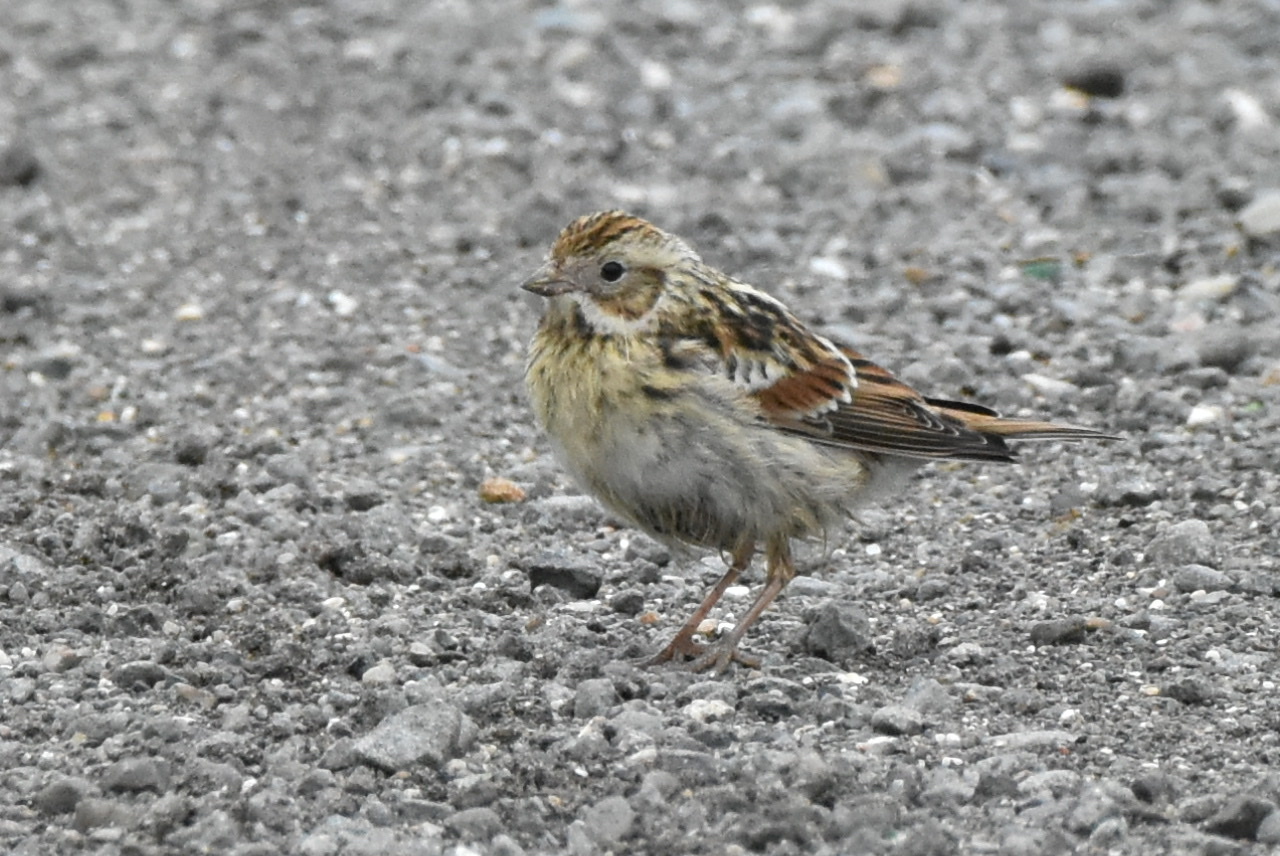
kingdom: Animalia
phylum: Chordata
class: Aves
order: Passeriformes
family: Calcariidae
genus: Calcarius
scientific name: Calcarius lapponicus
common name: Lapland longspur
